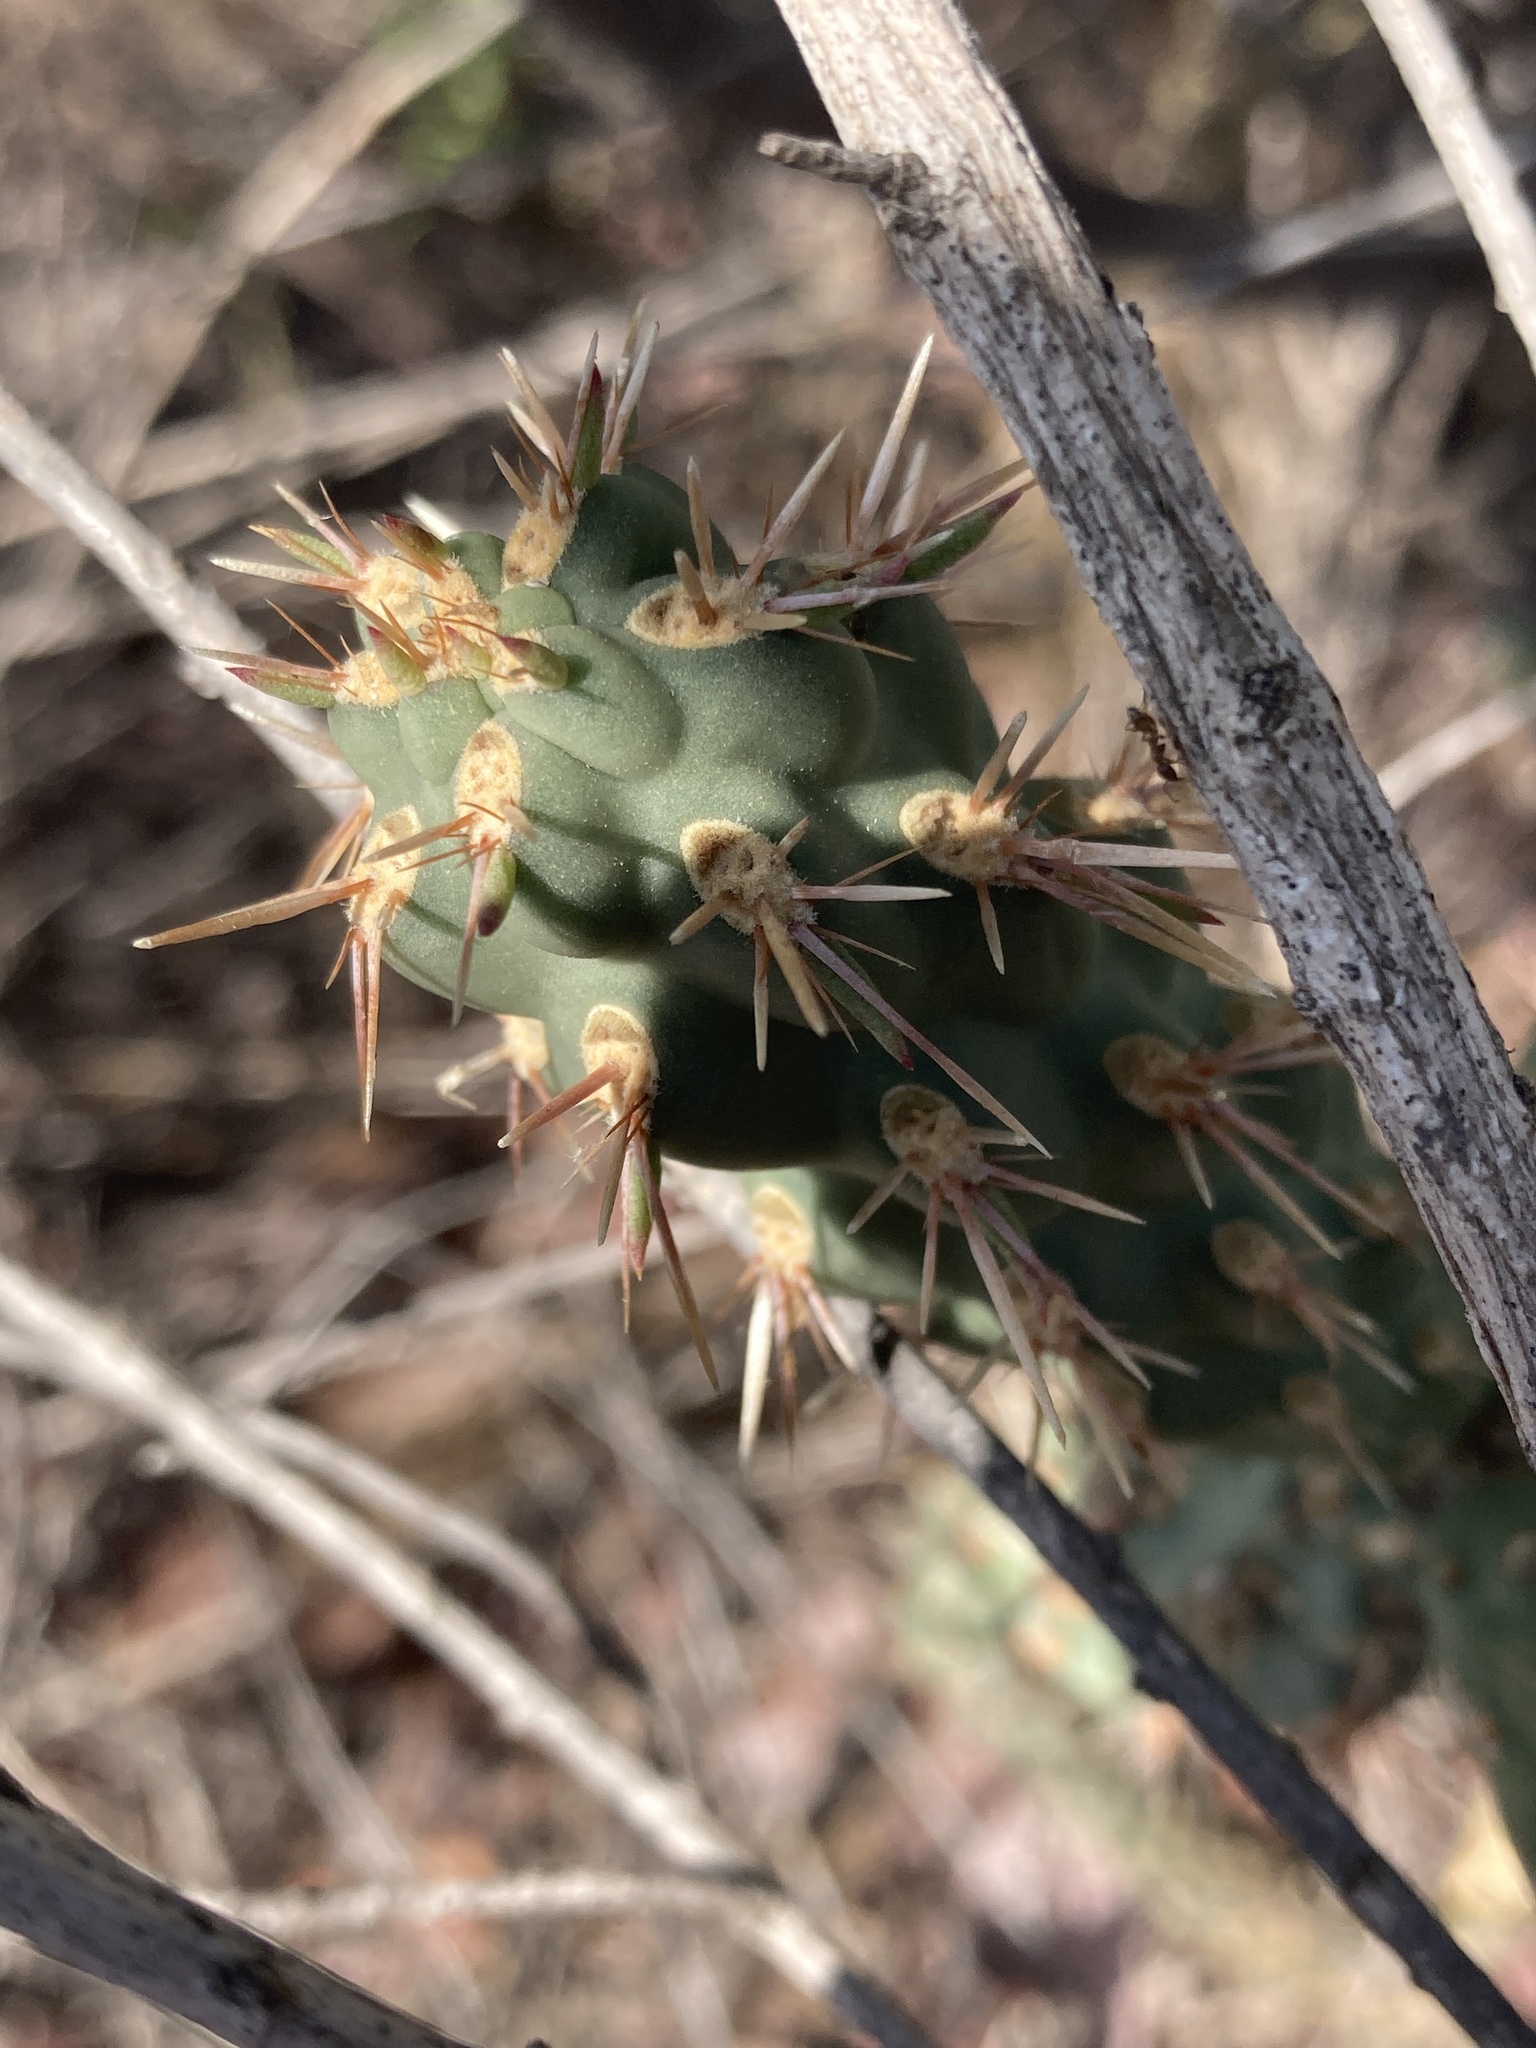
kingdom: Plantae
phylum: Tracheophyta
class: Magnoliopsida
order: Caryophyllales
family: Cactaceae
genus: Cylindropuntia
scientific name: Cylindropuntia californica
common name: Snake cholla
